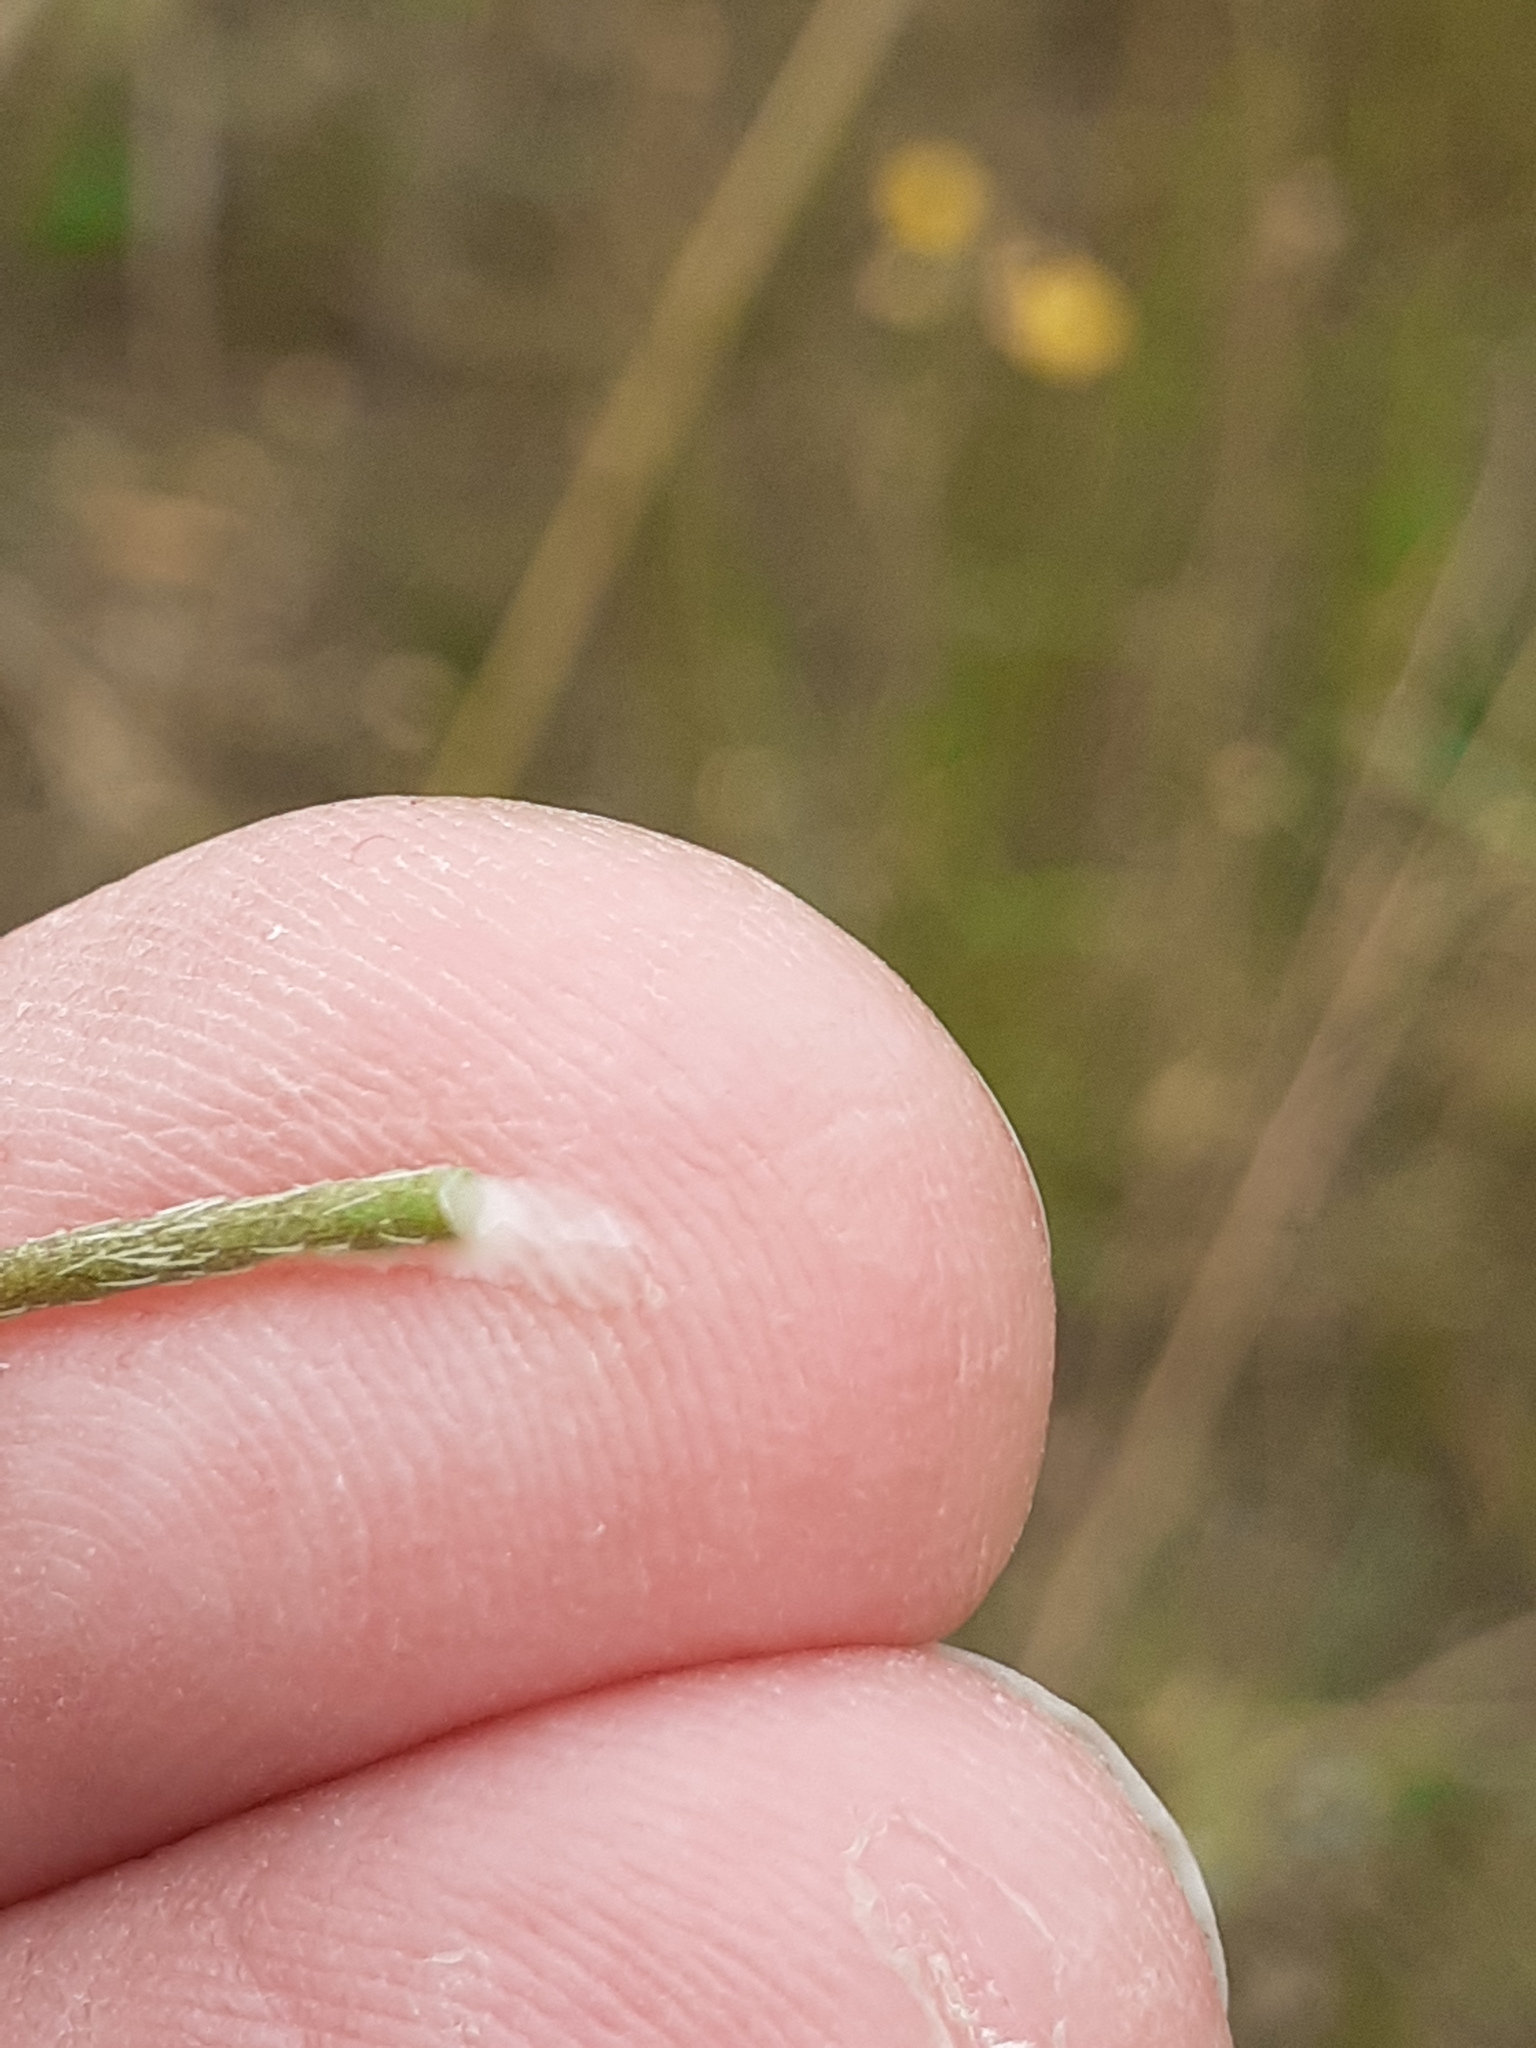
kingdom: Plantae
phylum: Tracheophyta
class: Magnoliopsida
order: Ranunculales
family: Papaveraceae
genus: Papaver
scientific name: Papaver dubium
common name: Long-headed poppy
